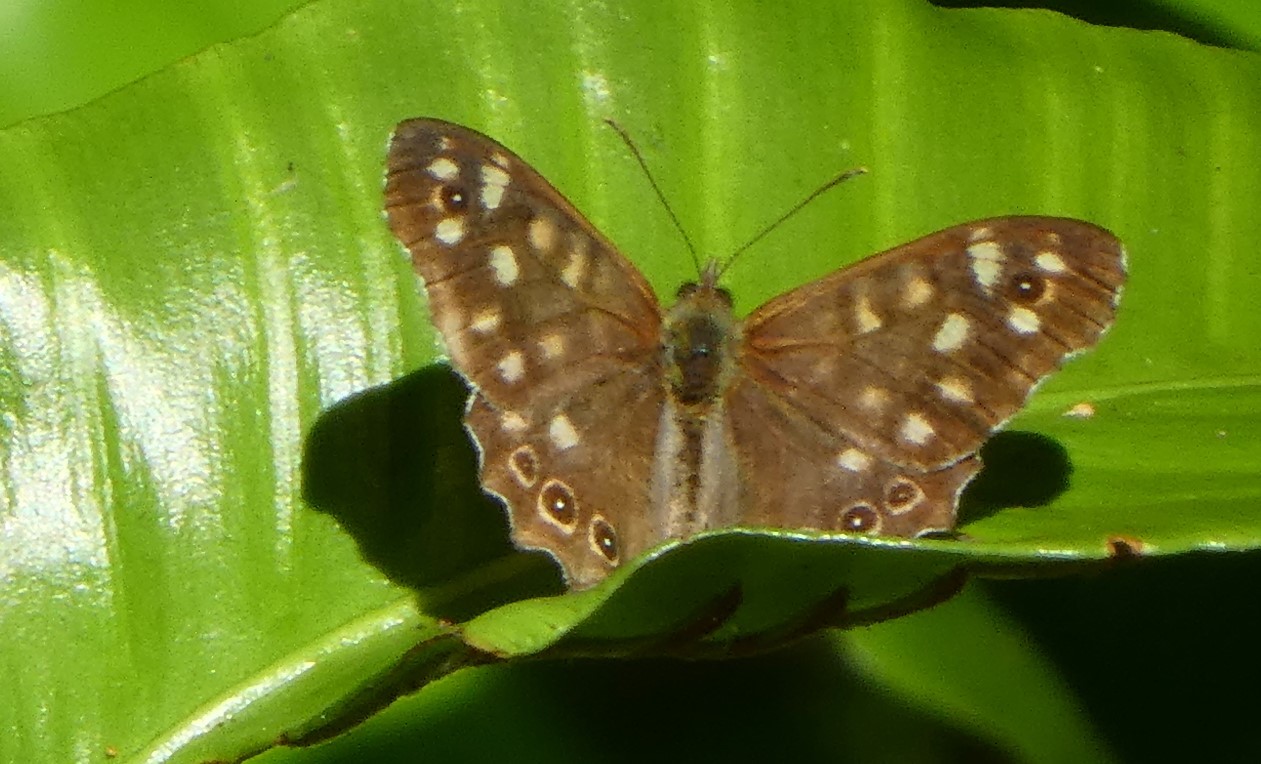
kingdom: Animalia
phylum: Arthropoda
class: Insecta
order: Lepidoptera
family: Nymphalidae
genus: Pararge
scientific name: Pararge aegeria
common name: Speckled wood
